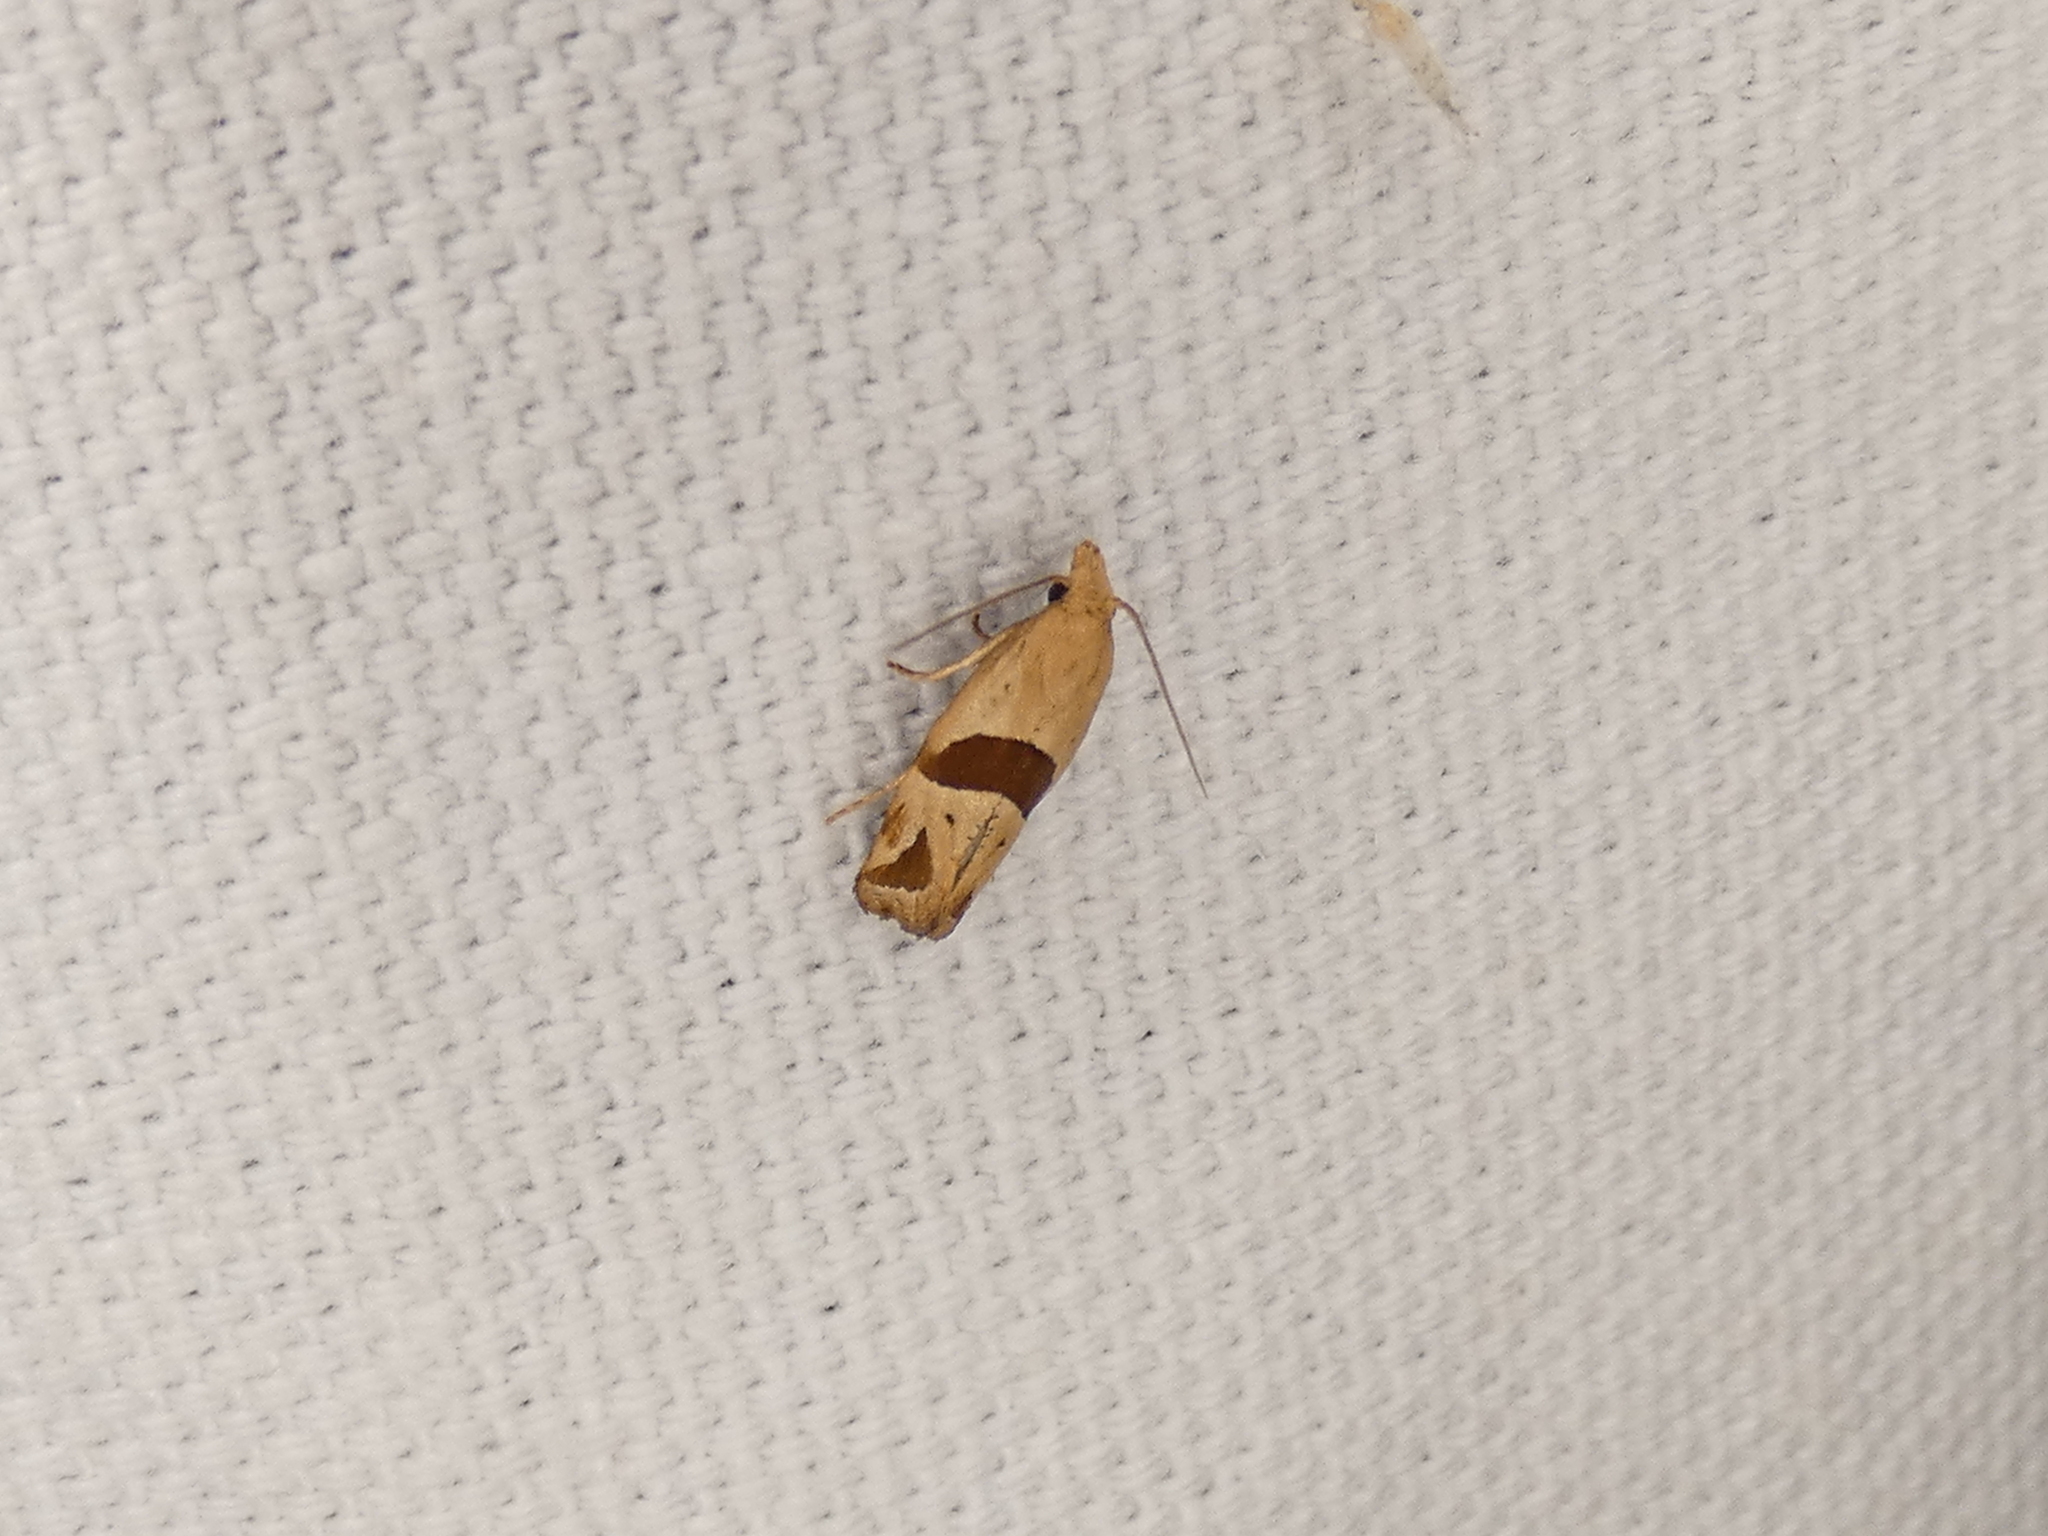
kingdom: Animalia
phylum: Arthropoda
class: Insecta
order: Lepidoptera
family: Tortricidae
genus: Eugnosta
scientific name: Eugnosta sartana
